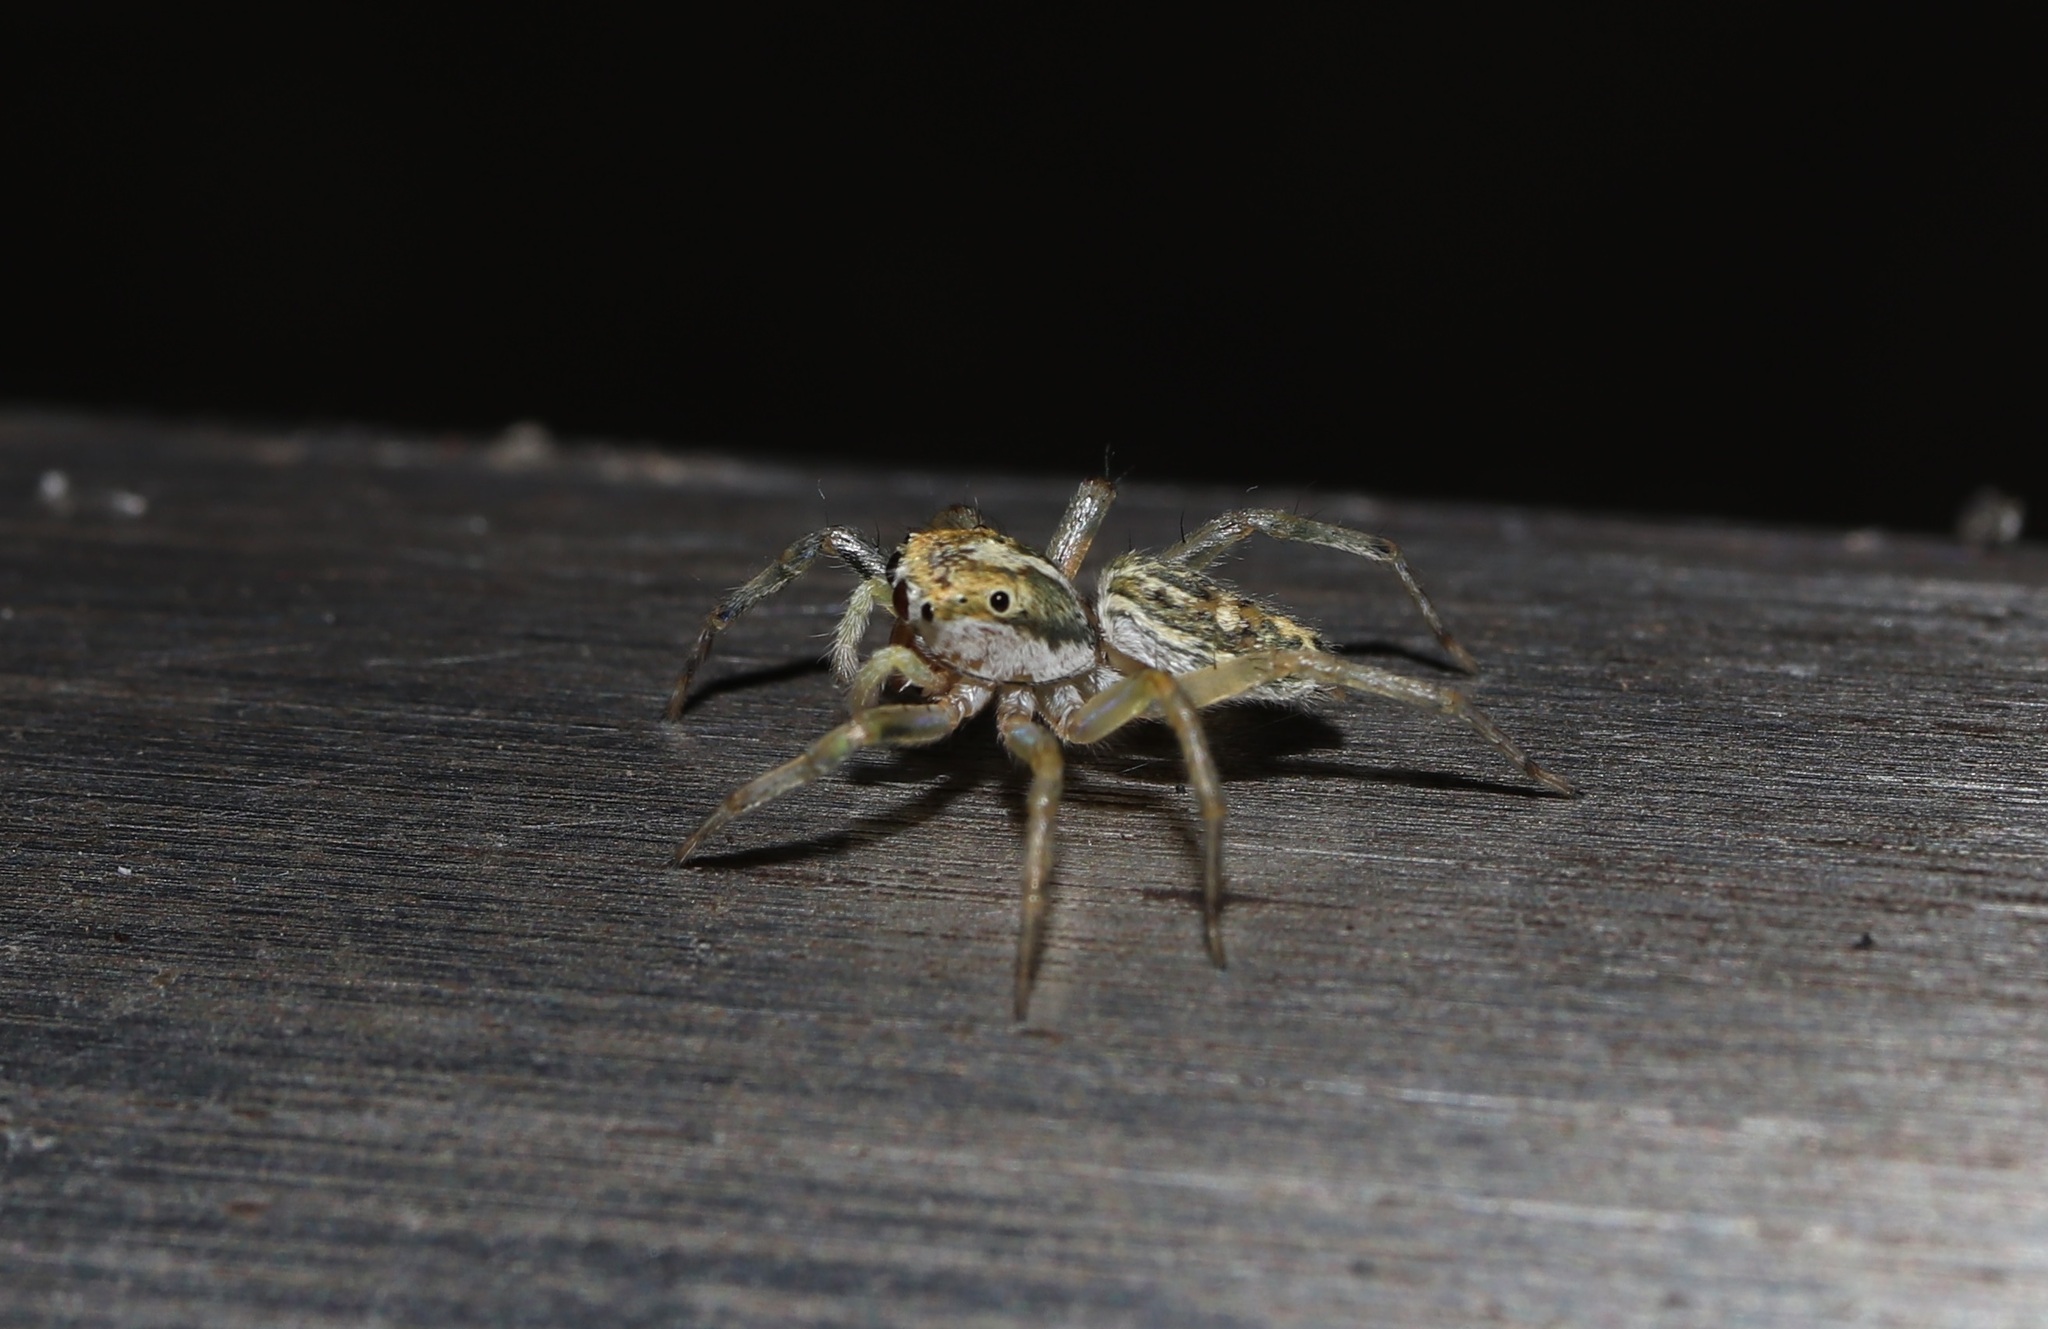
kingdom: Animalia
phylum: Arthropoda
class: Arachnida
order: Araneae
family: Salticidae
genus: Phintella
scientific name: Phintella abnormis
